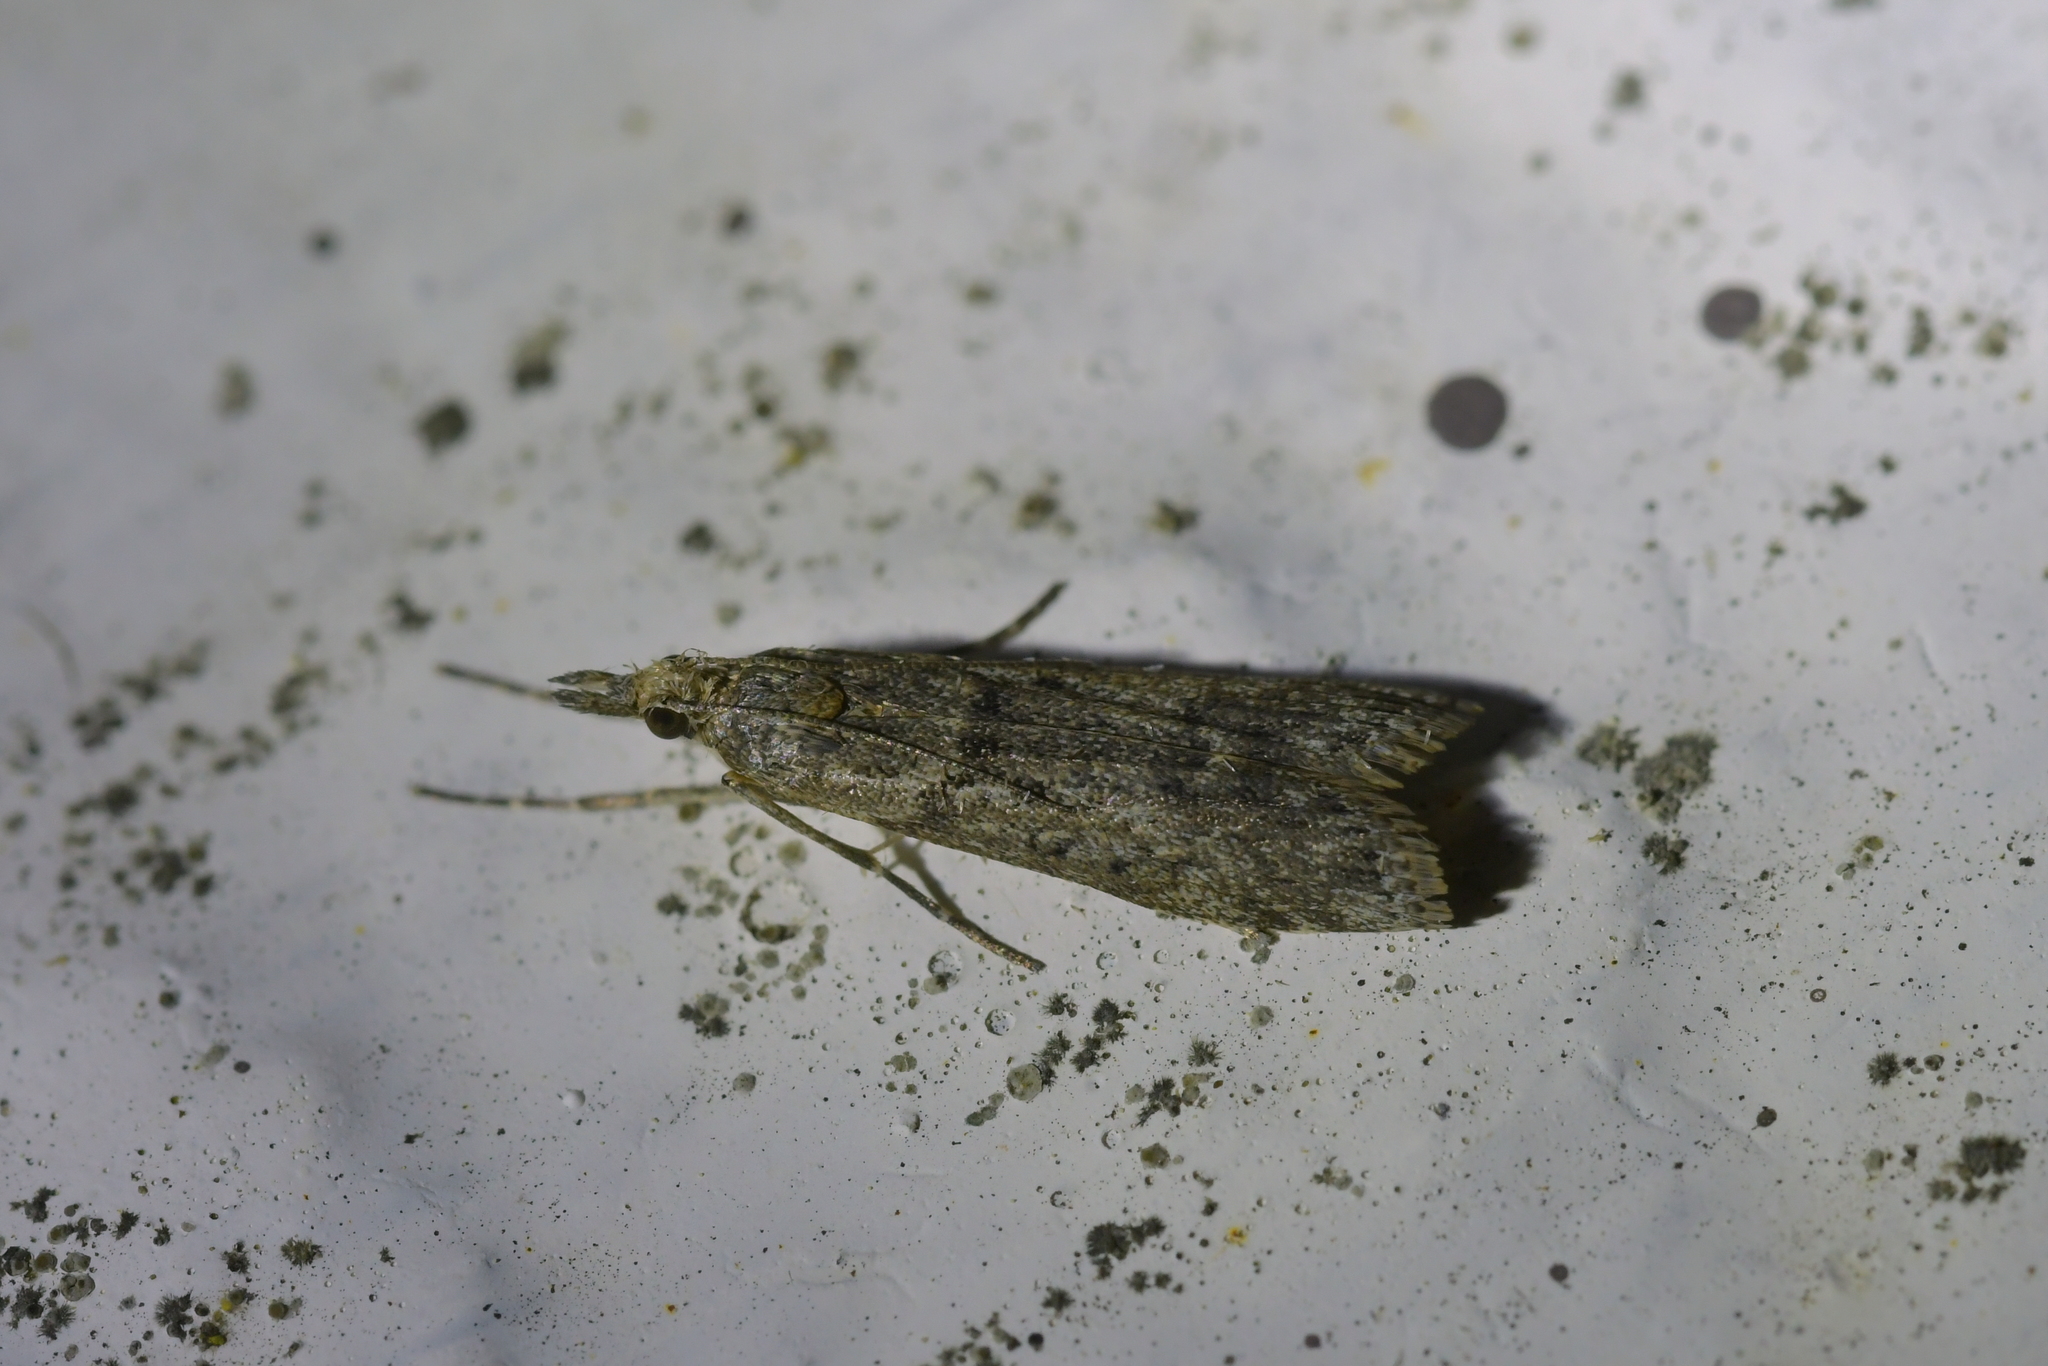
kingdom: Animalia
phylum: Arthropoda
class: Insecta
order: Lepidoptera
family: Crambidae
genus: Eudonia
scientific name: Eudonia leptalea
